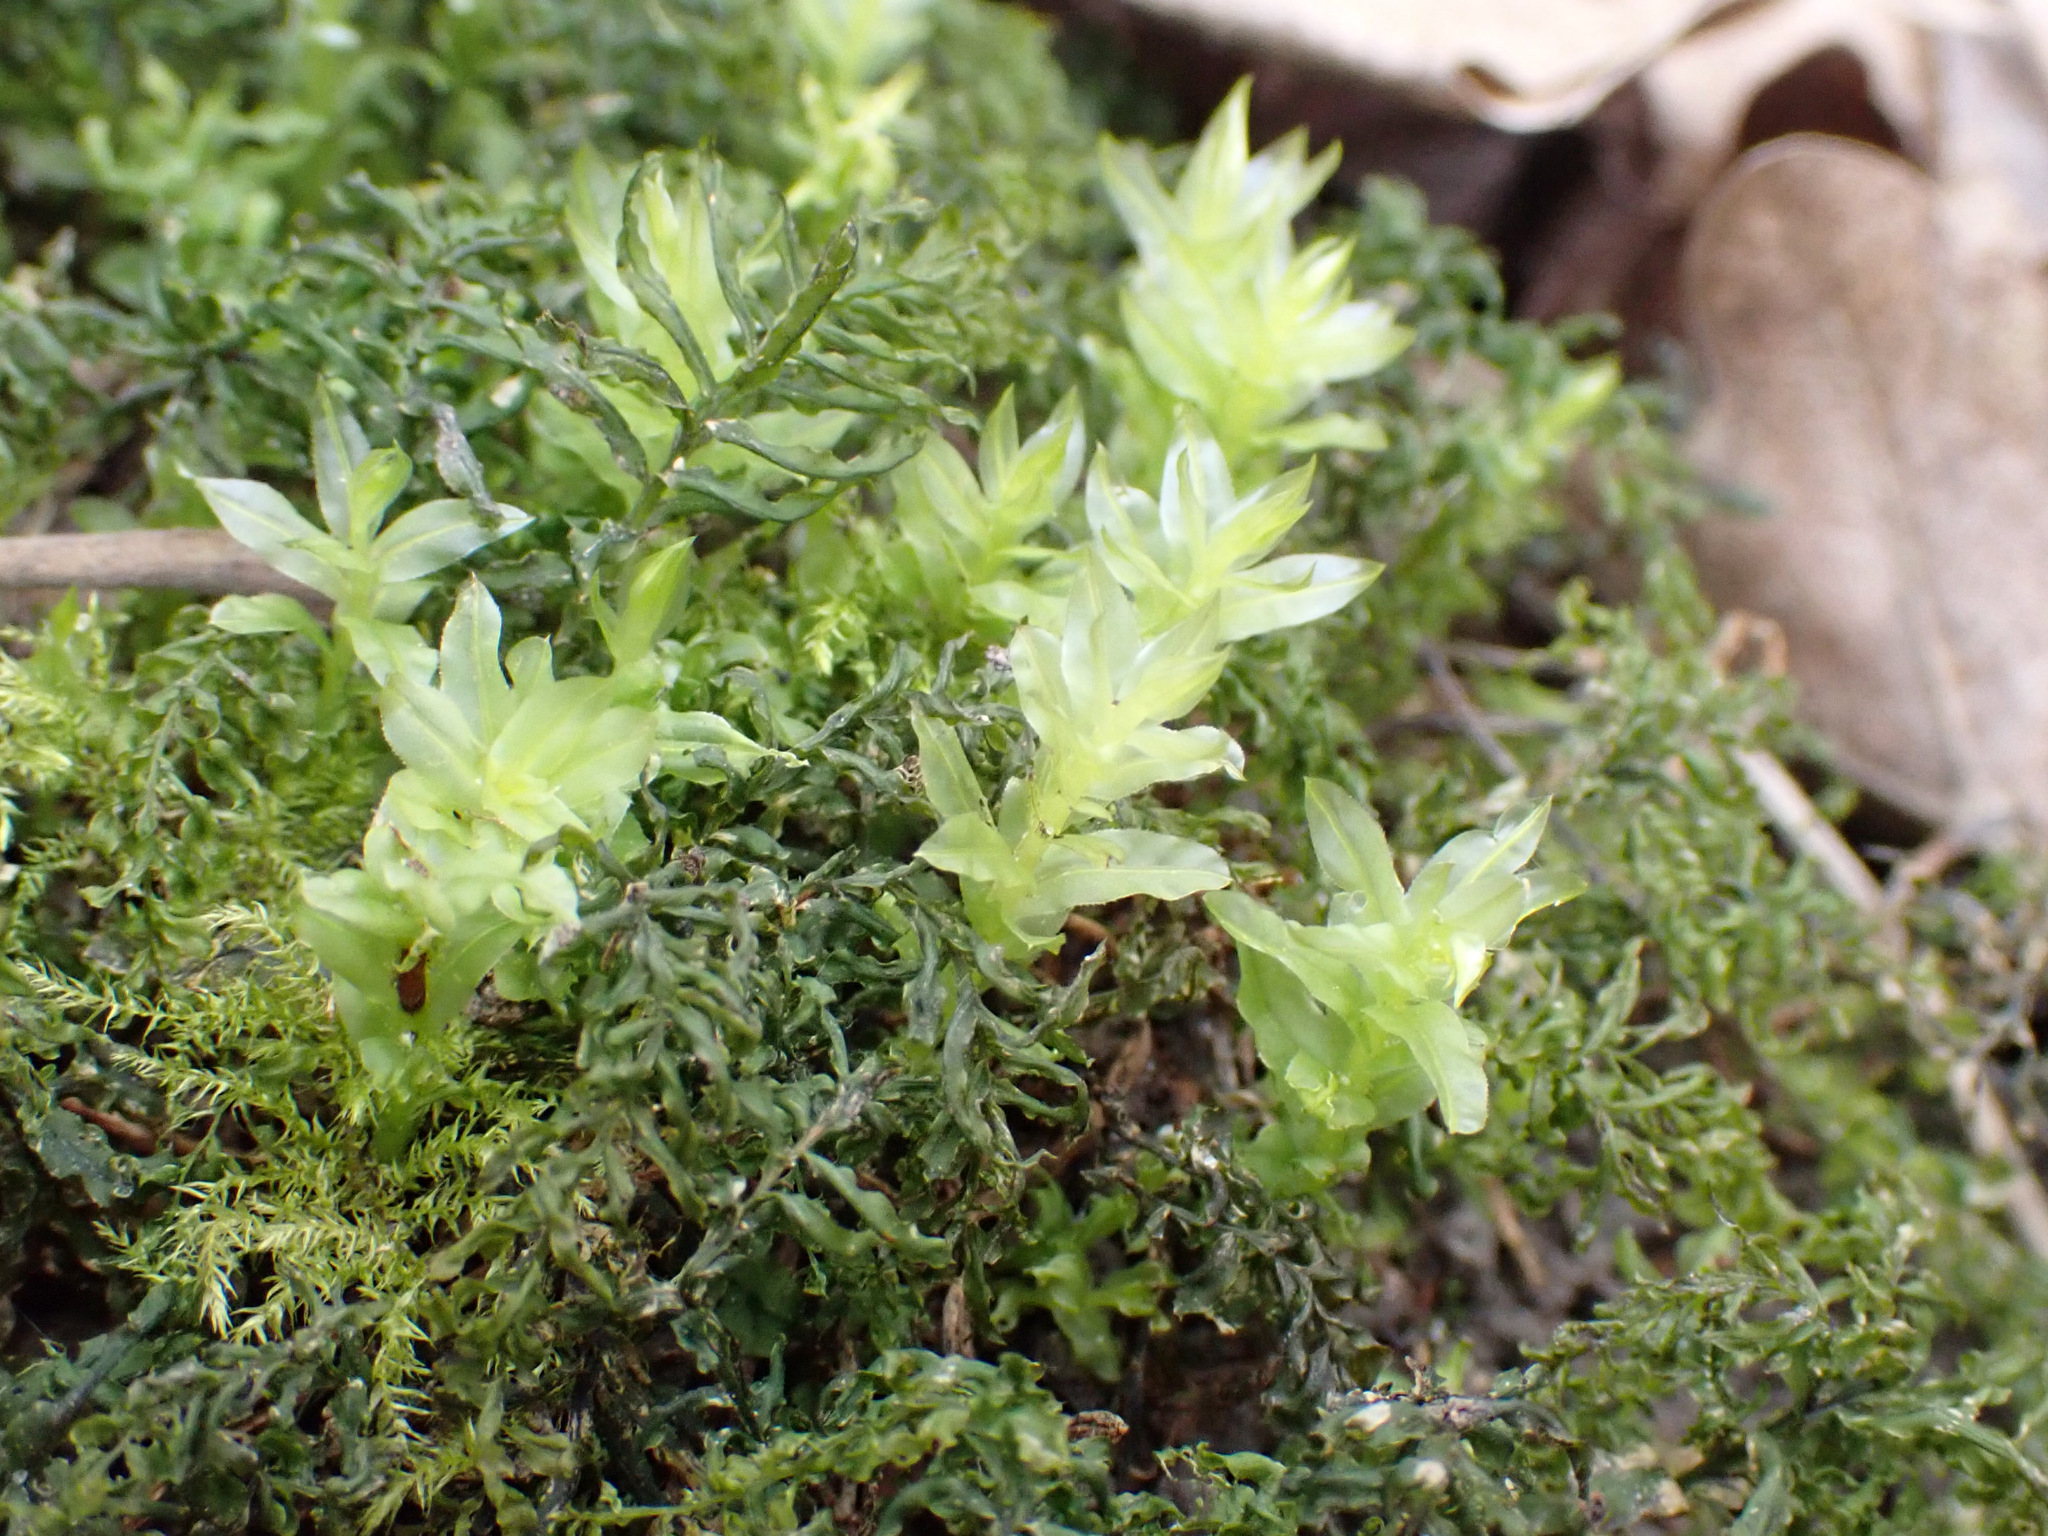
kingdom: Plantae
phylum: Bryophyta
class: Bryopsida
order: Bryales
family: Mniaceae
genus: Plagiomnium
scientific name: Plagiomnium undulatum
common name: Hart's-tongue thyme-moss
